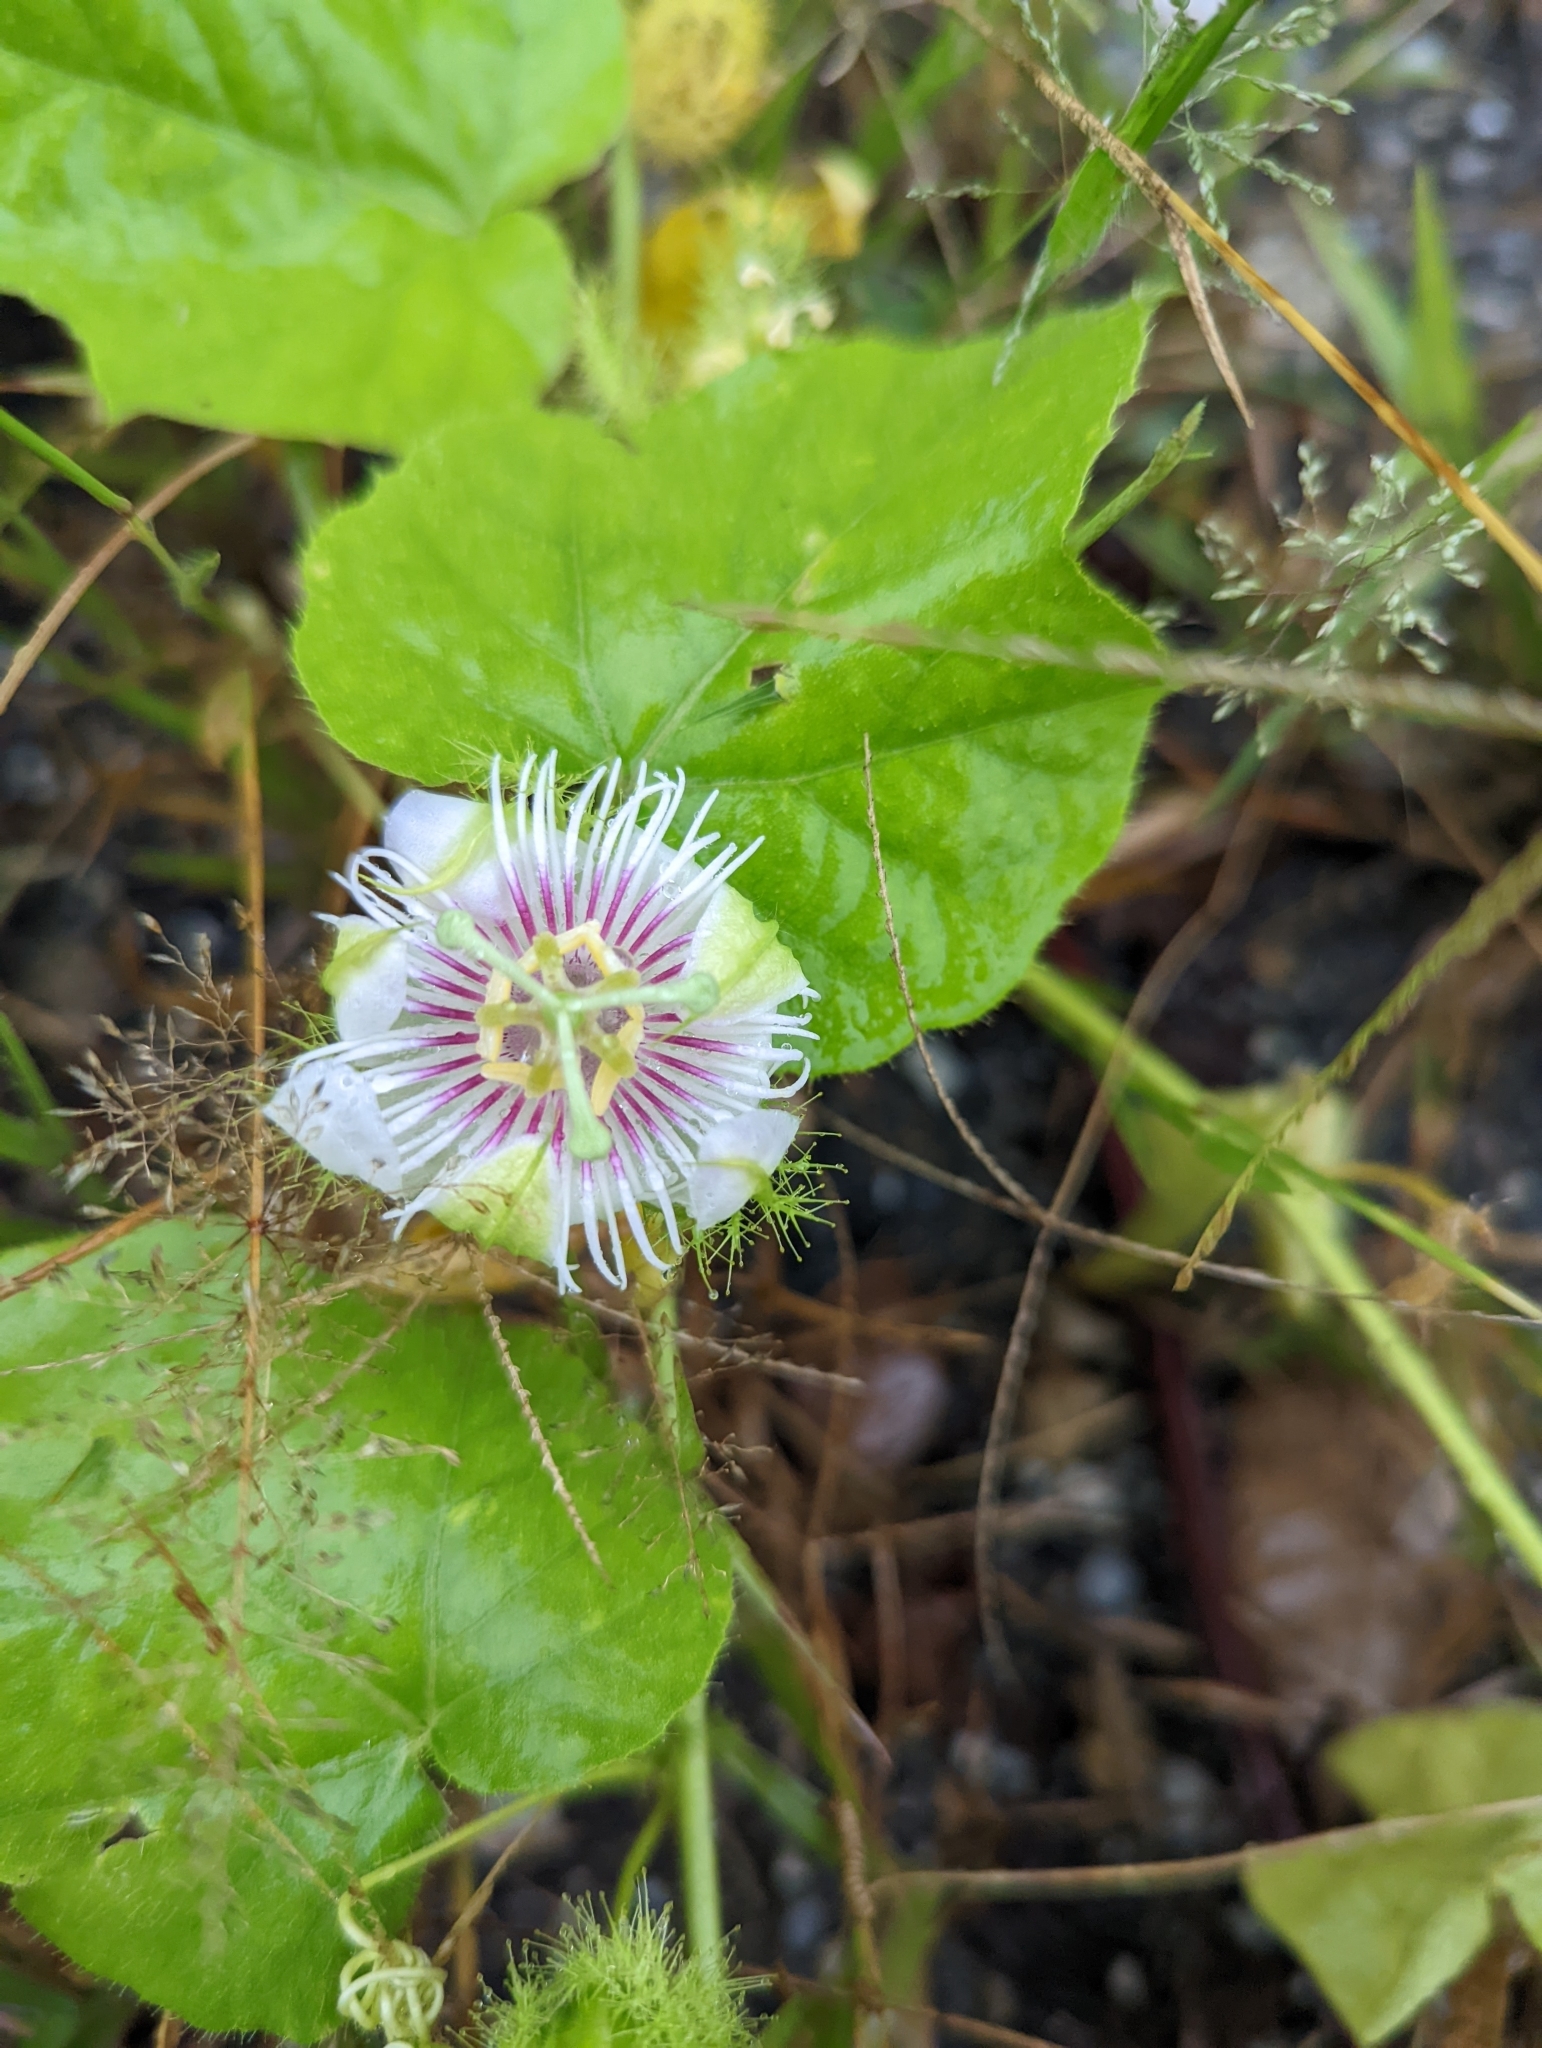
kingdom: Plantae
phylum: Tracheophyta
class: Magnoliopsida
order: Malpighiales
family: Passifloraceae
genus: Passiflora
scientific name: Passiflora foetida
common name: Fetid passionflower
